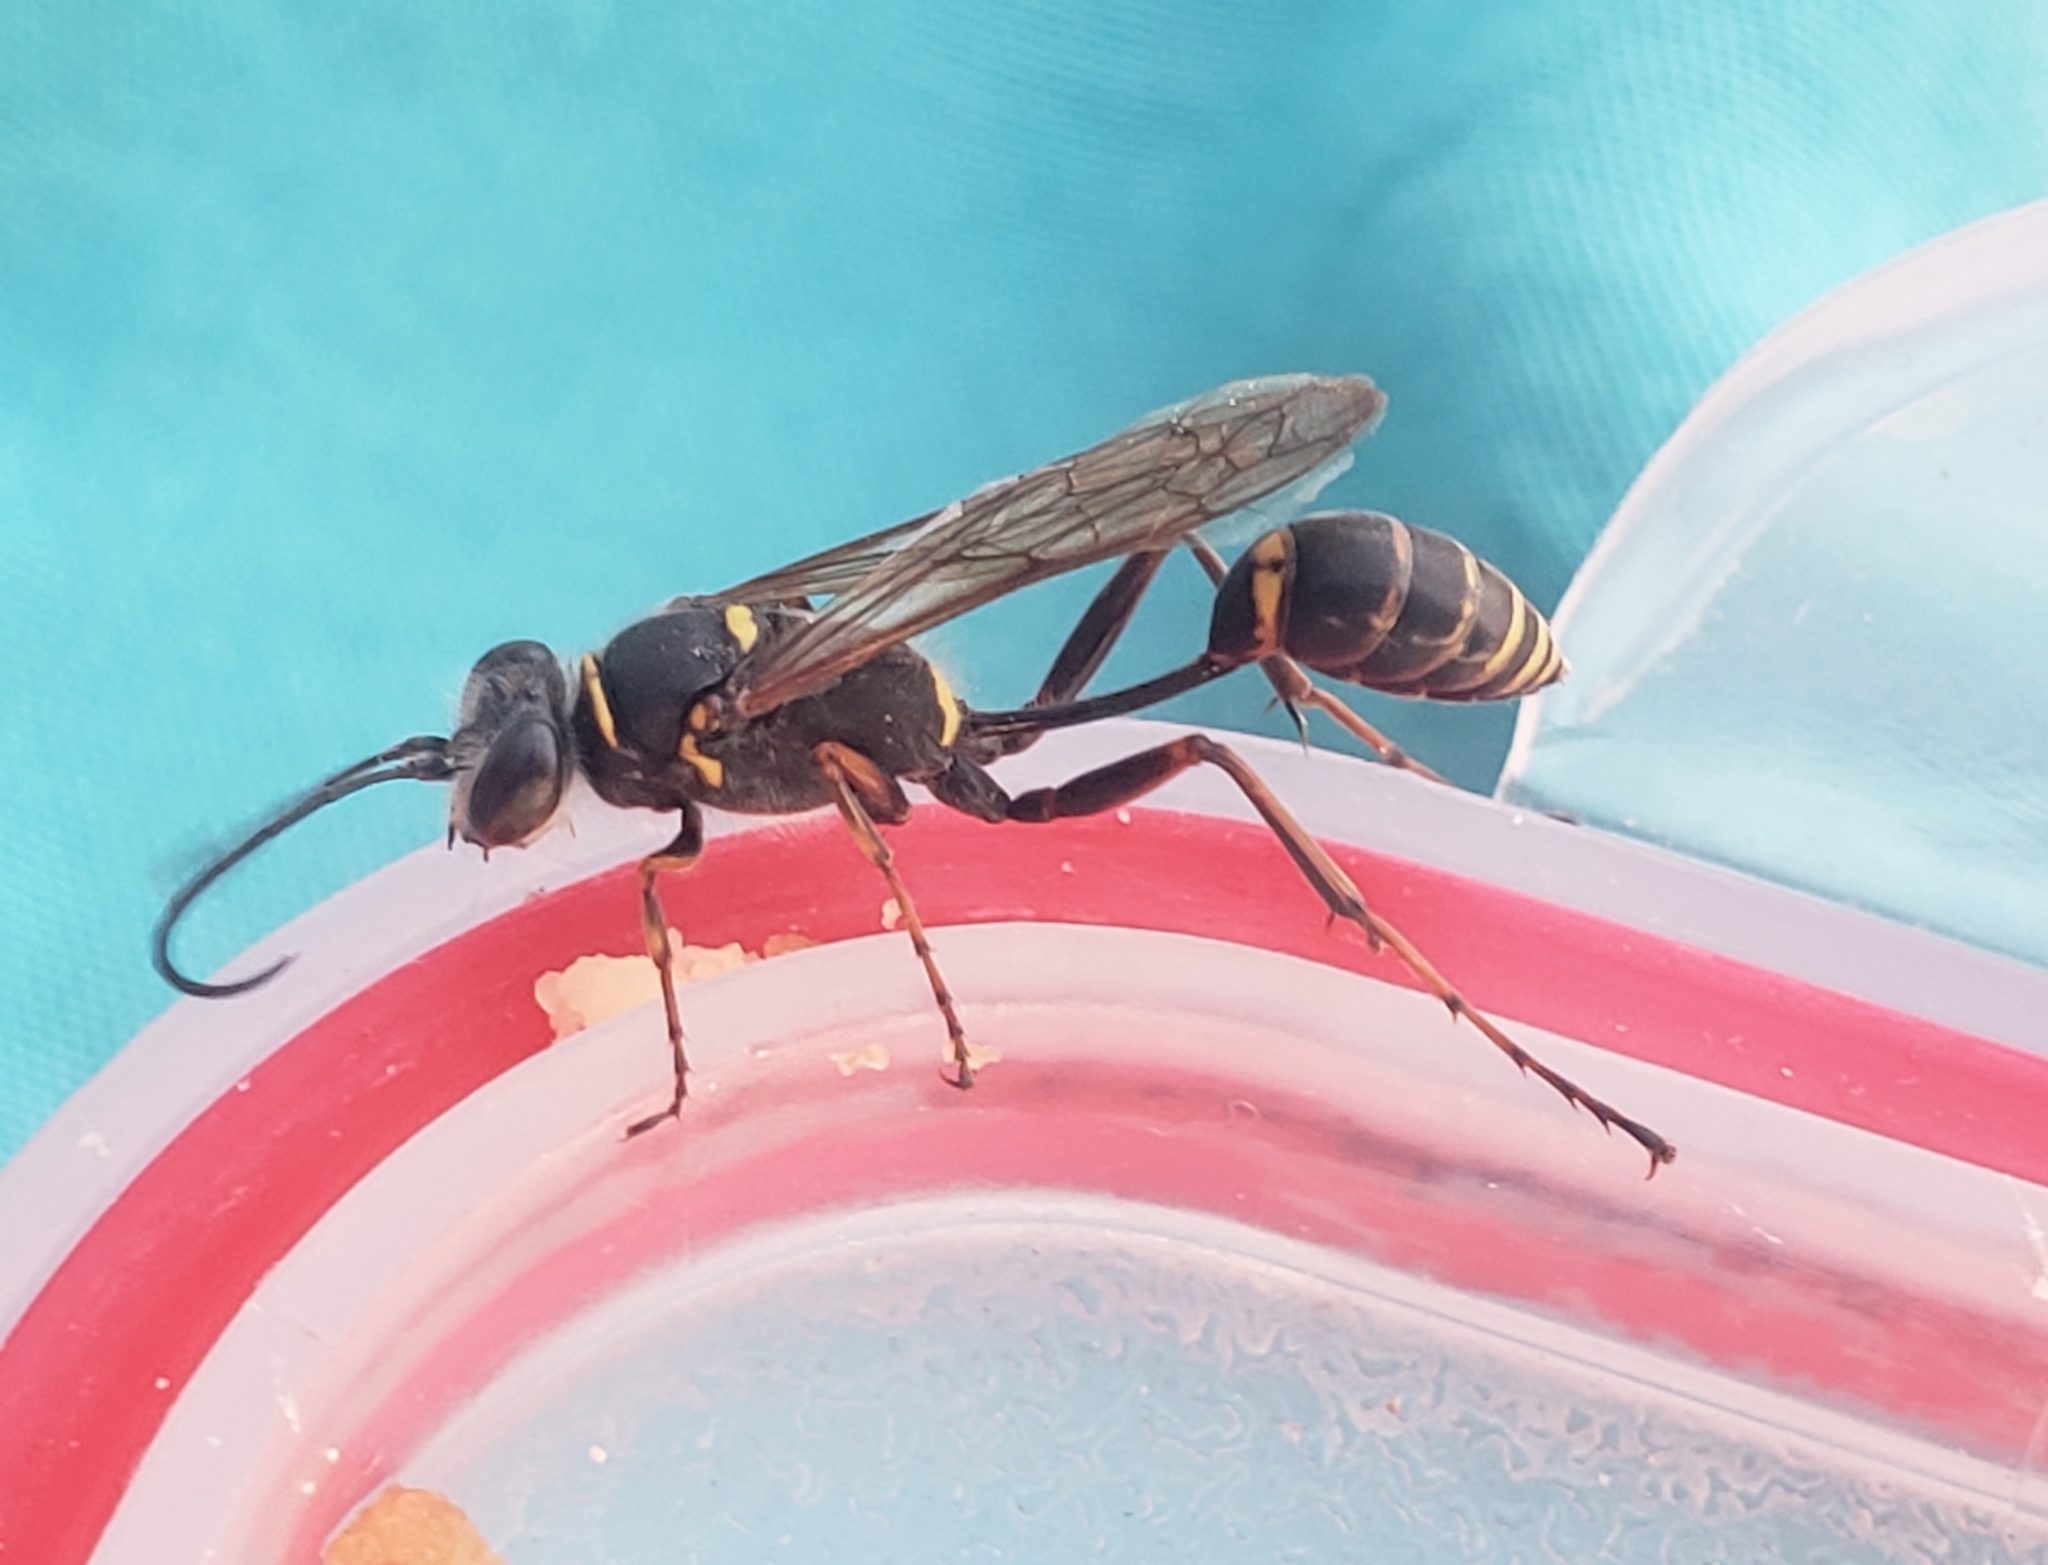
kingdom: Animalia
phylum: Arthropoda
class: Insecta
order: Hymenoptera
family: Sphecidae
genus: Sceliphron
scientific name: Sceliphron curvatum
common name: Pèlopèe
